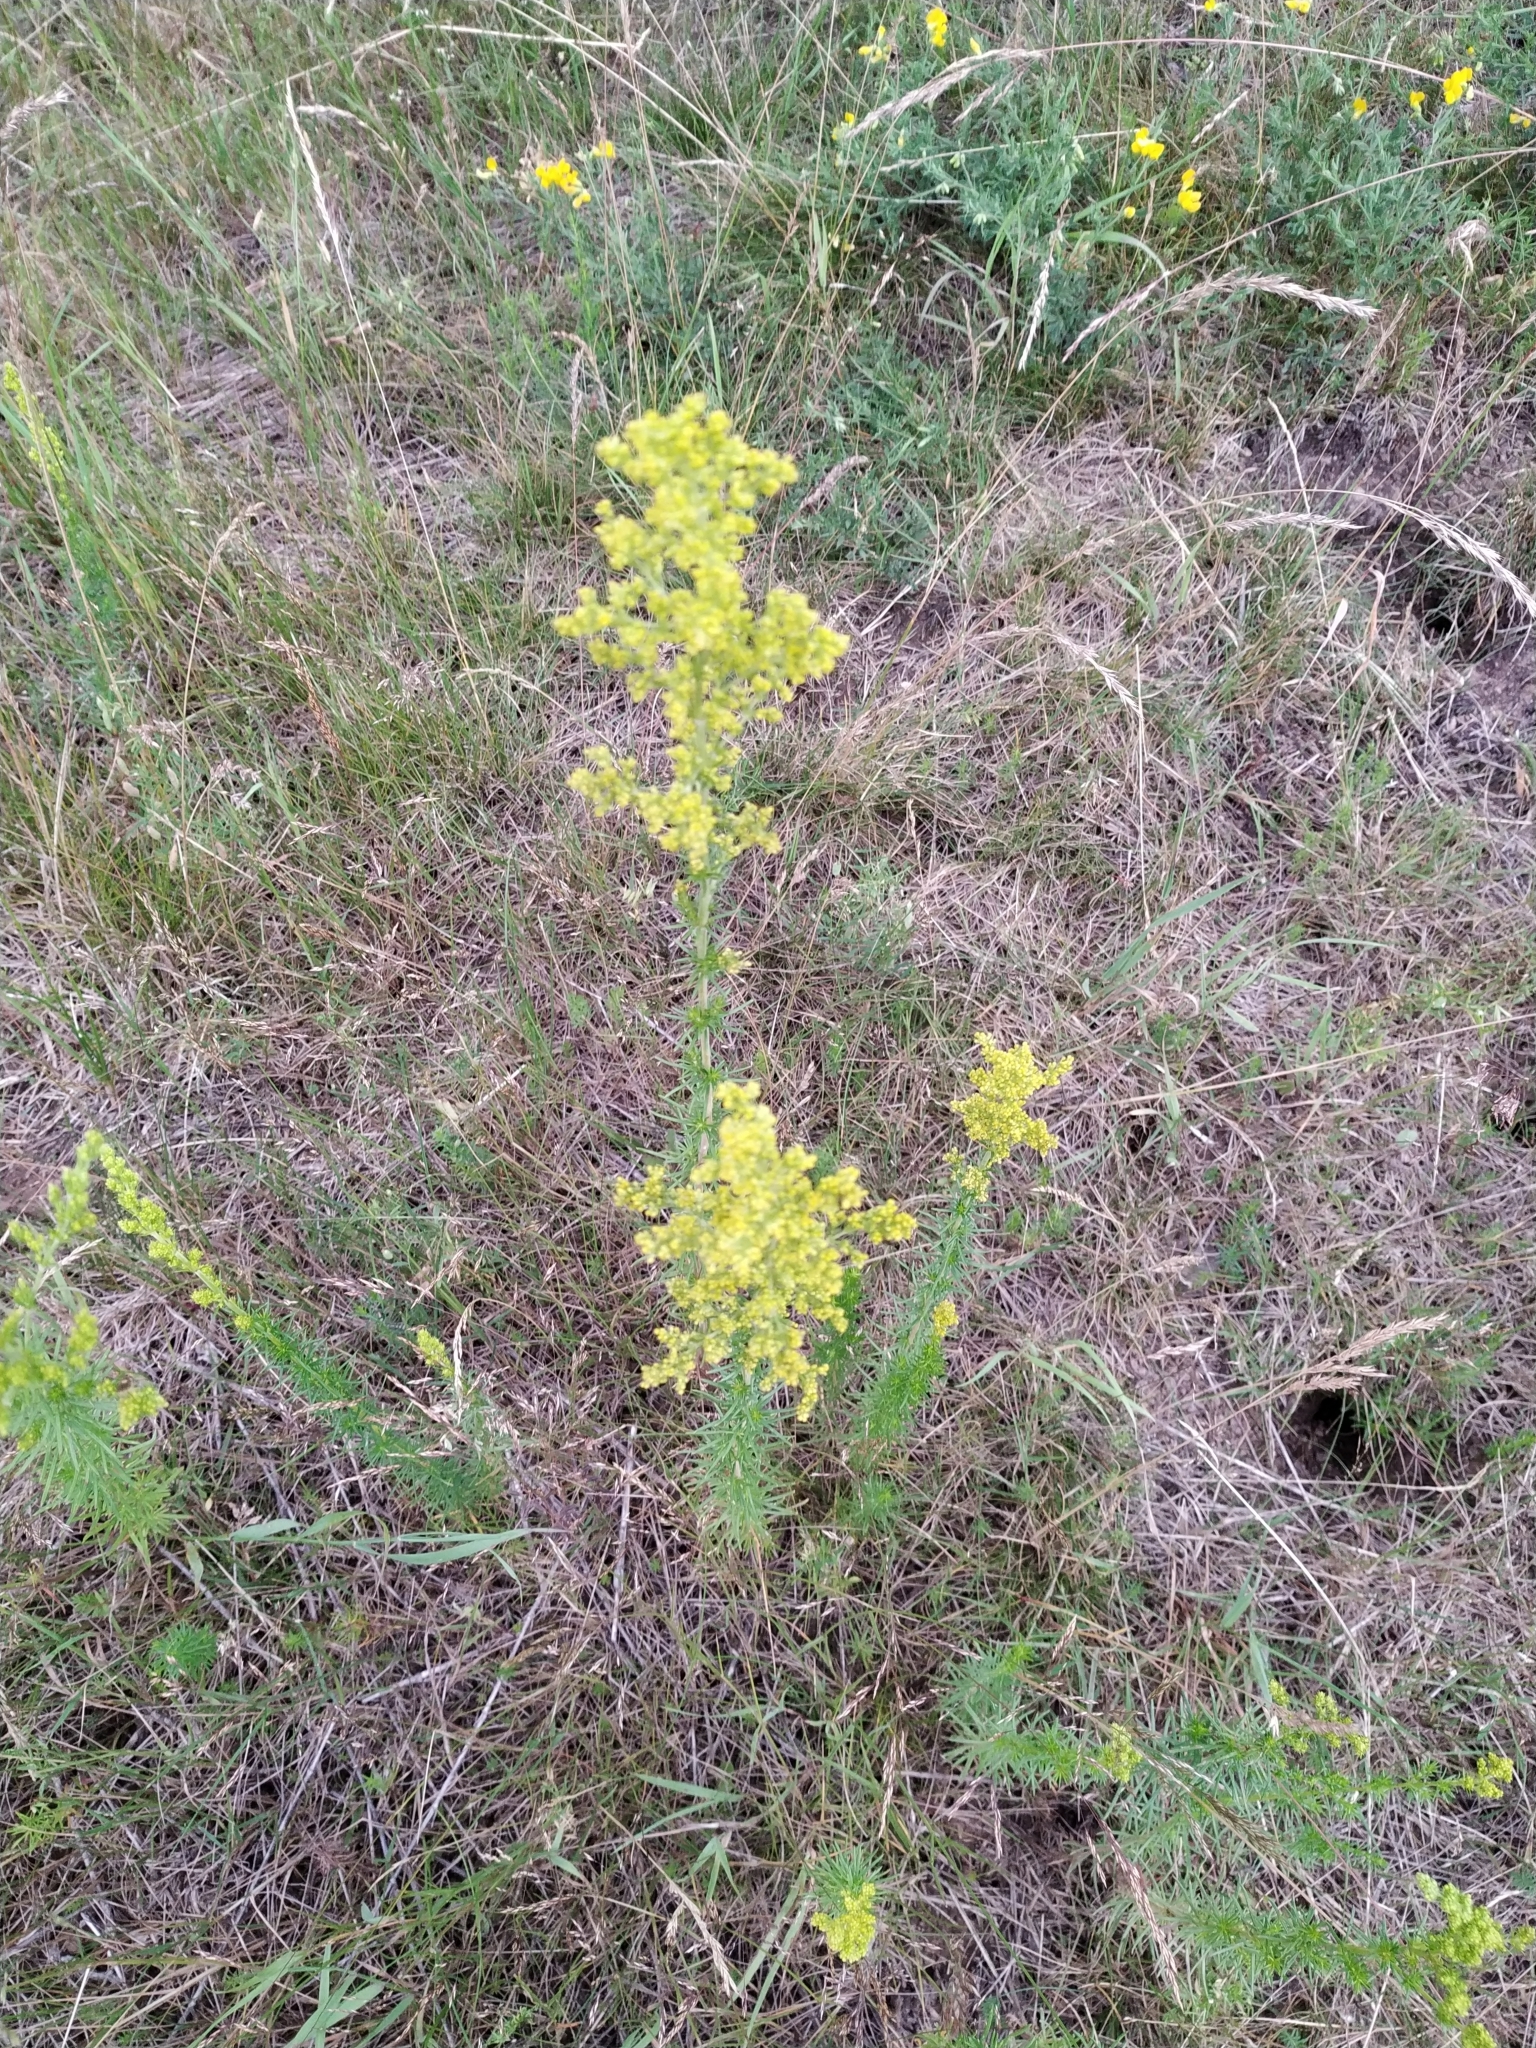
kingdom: Plantae
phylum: Tracheophyta
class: Magnoliopsida
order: Gentianales
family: Rubiaceae
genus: Galium
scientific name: Galium verum
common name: Lady's bedstraw
